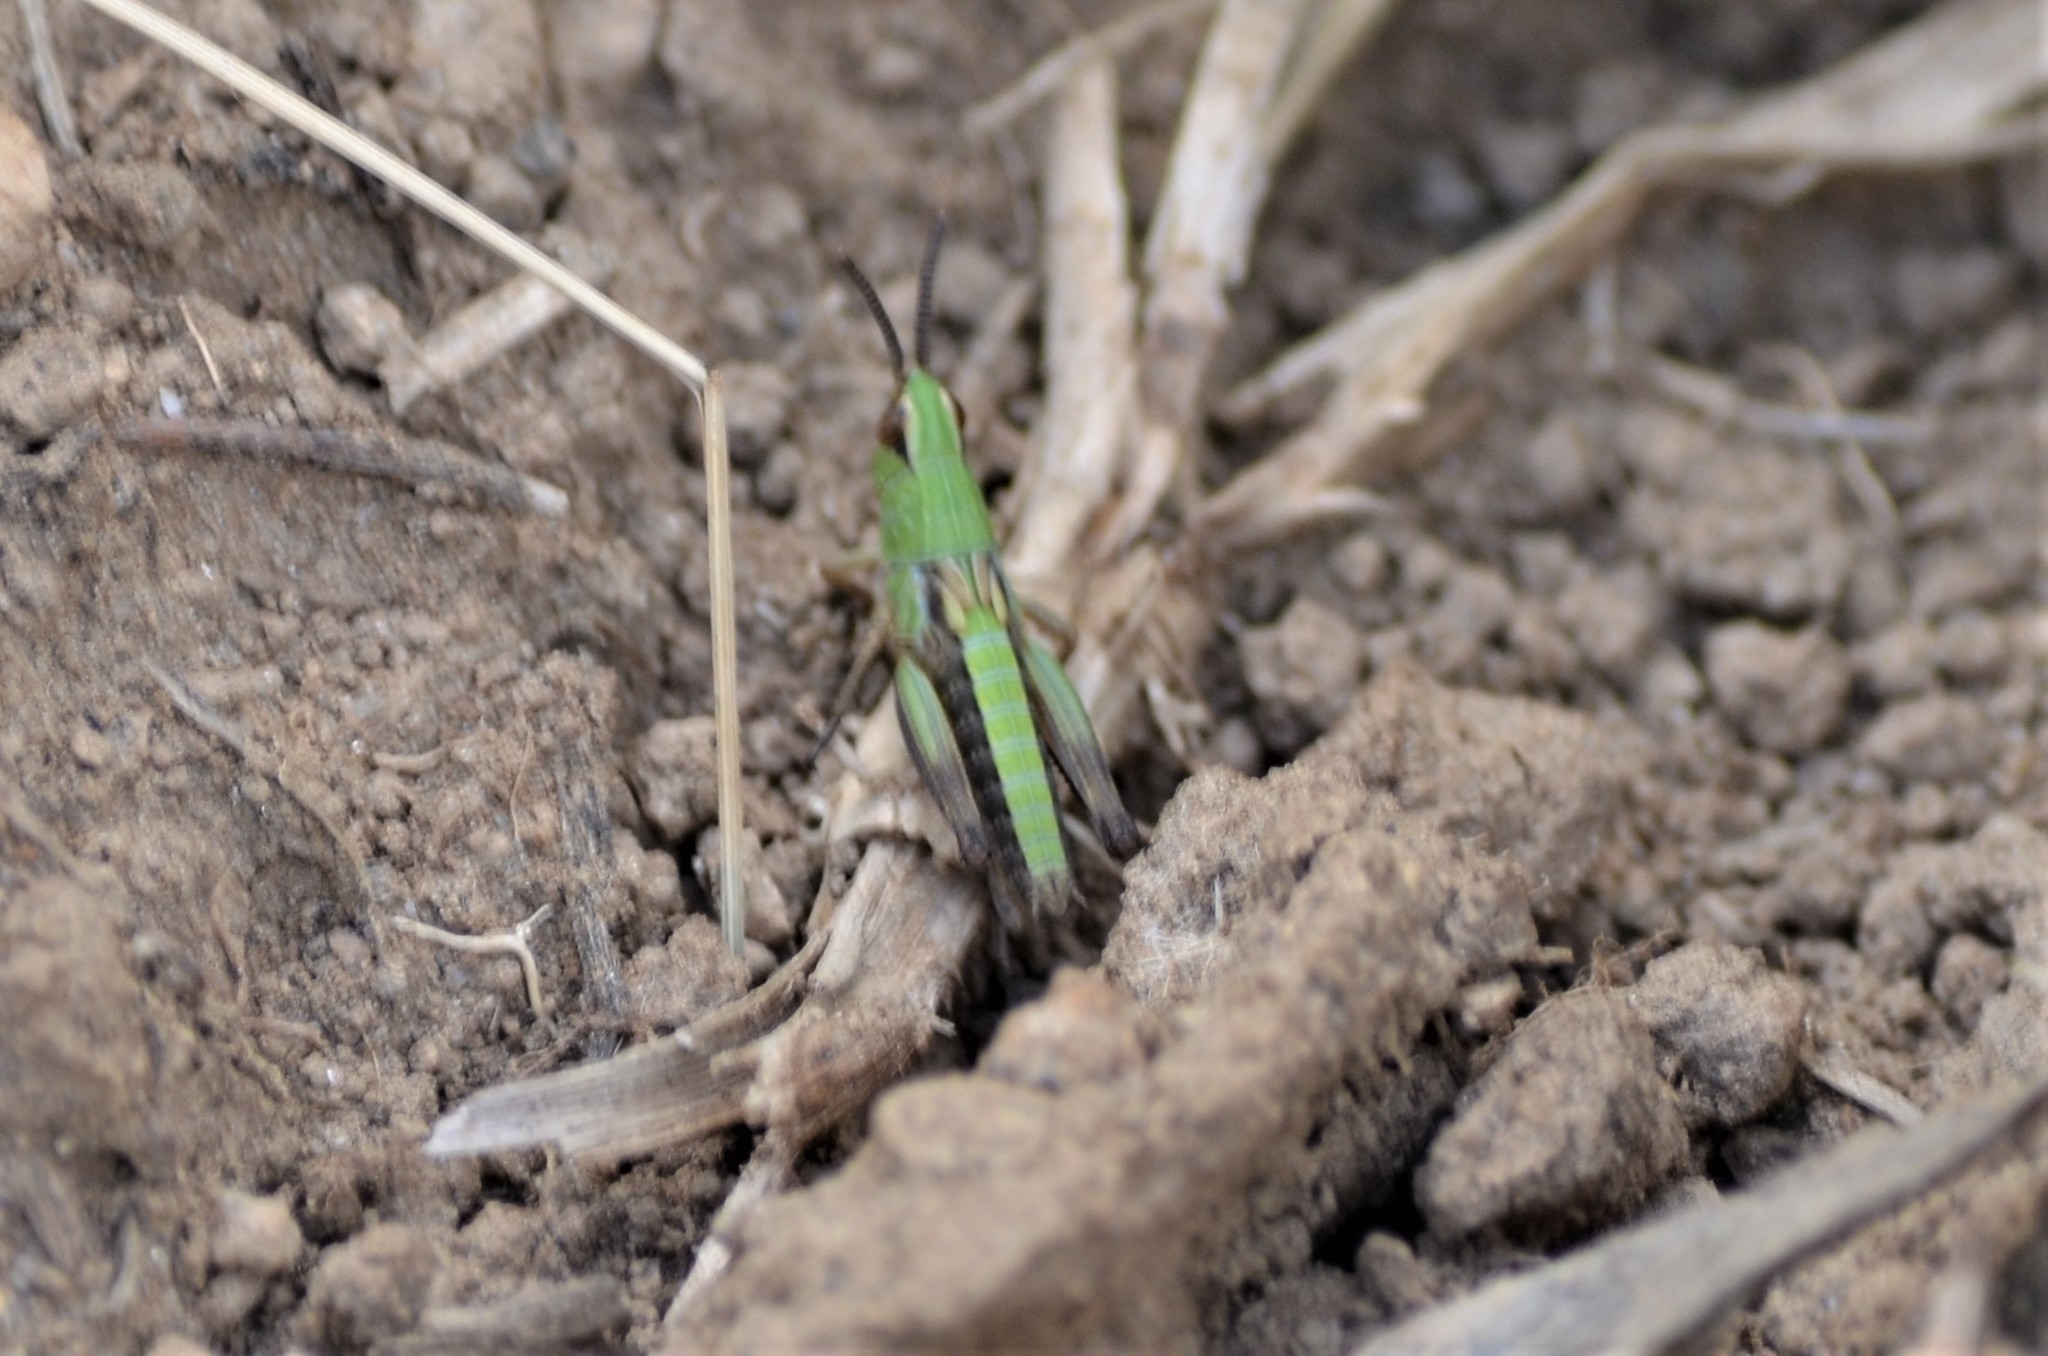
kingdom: Animalia
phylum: Arthropoda
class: Insecta
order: Orthoptera
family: Acrididae
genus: Pseudochorthippus
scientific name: Pseudochorthippus parallelus
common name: Meadow grasshopper
